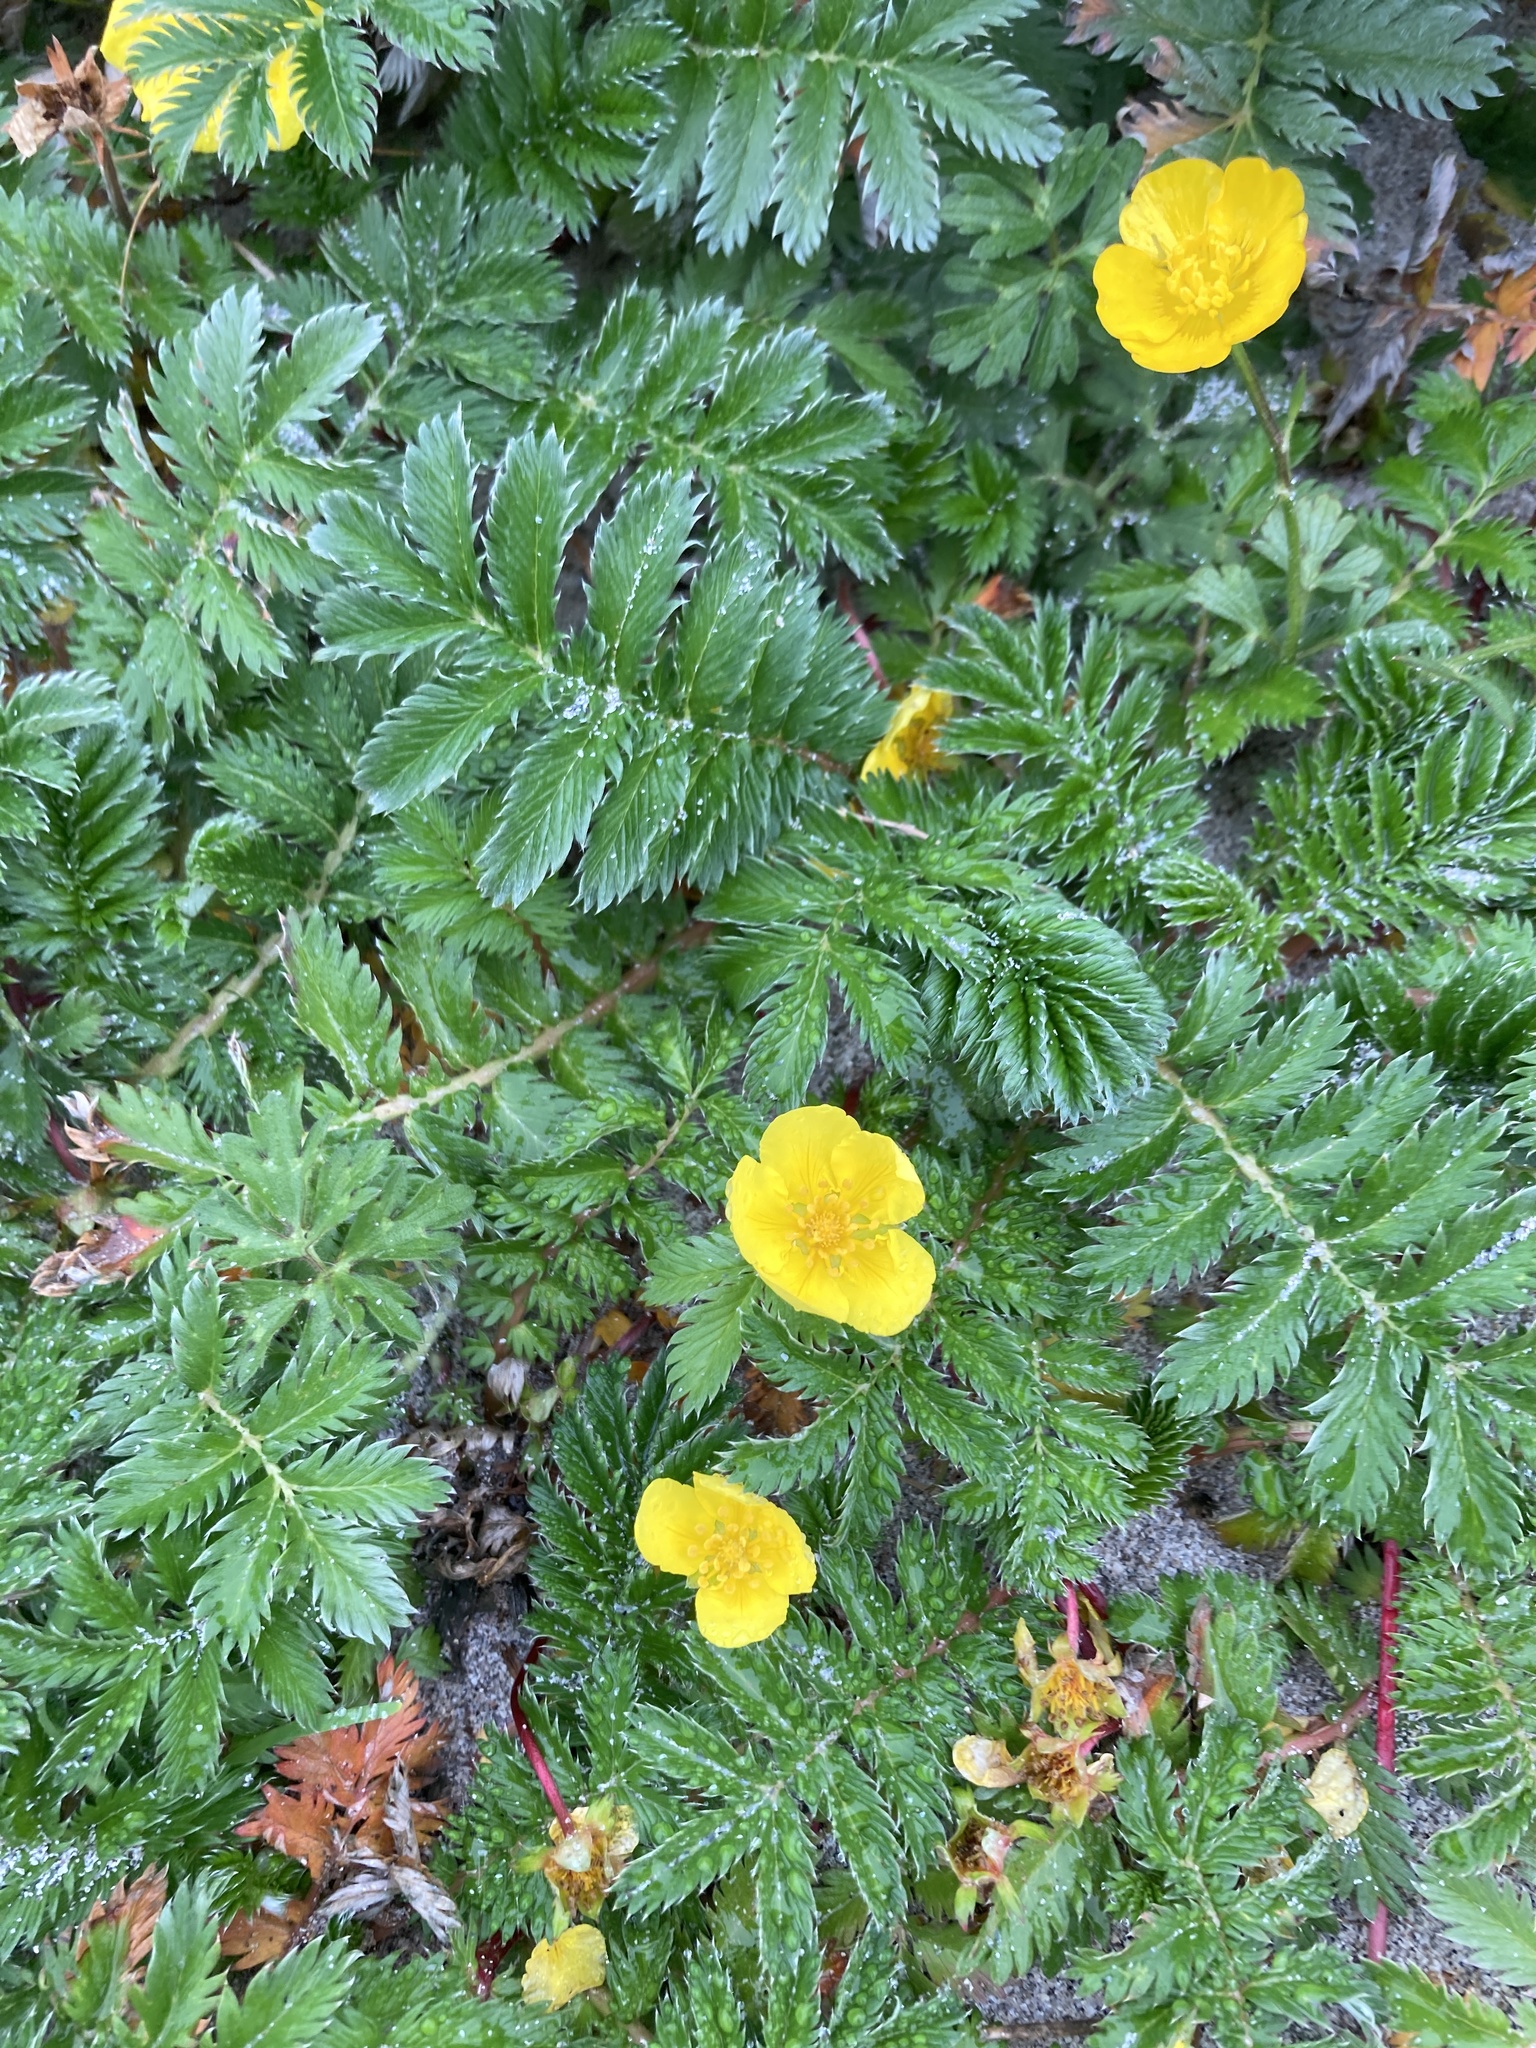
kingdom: Plantae
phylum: Tracheophyta
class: Magnoliopsida
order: Rosales
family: Rosaceae
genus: Argentina
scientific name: Argentina anserina
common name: Common silverweed
